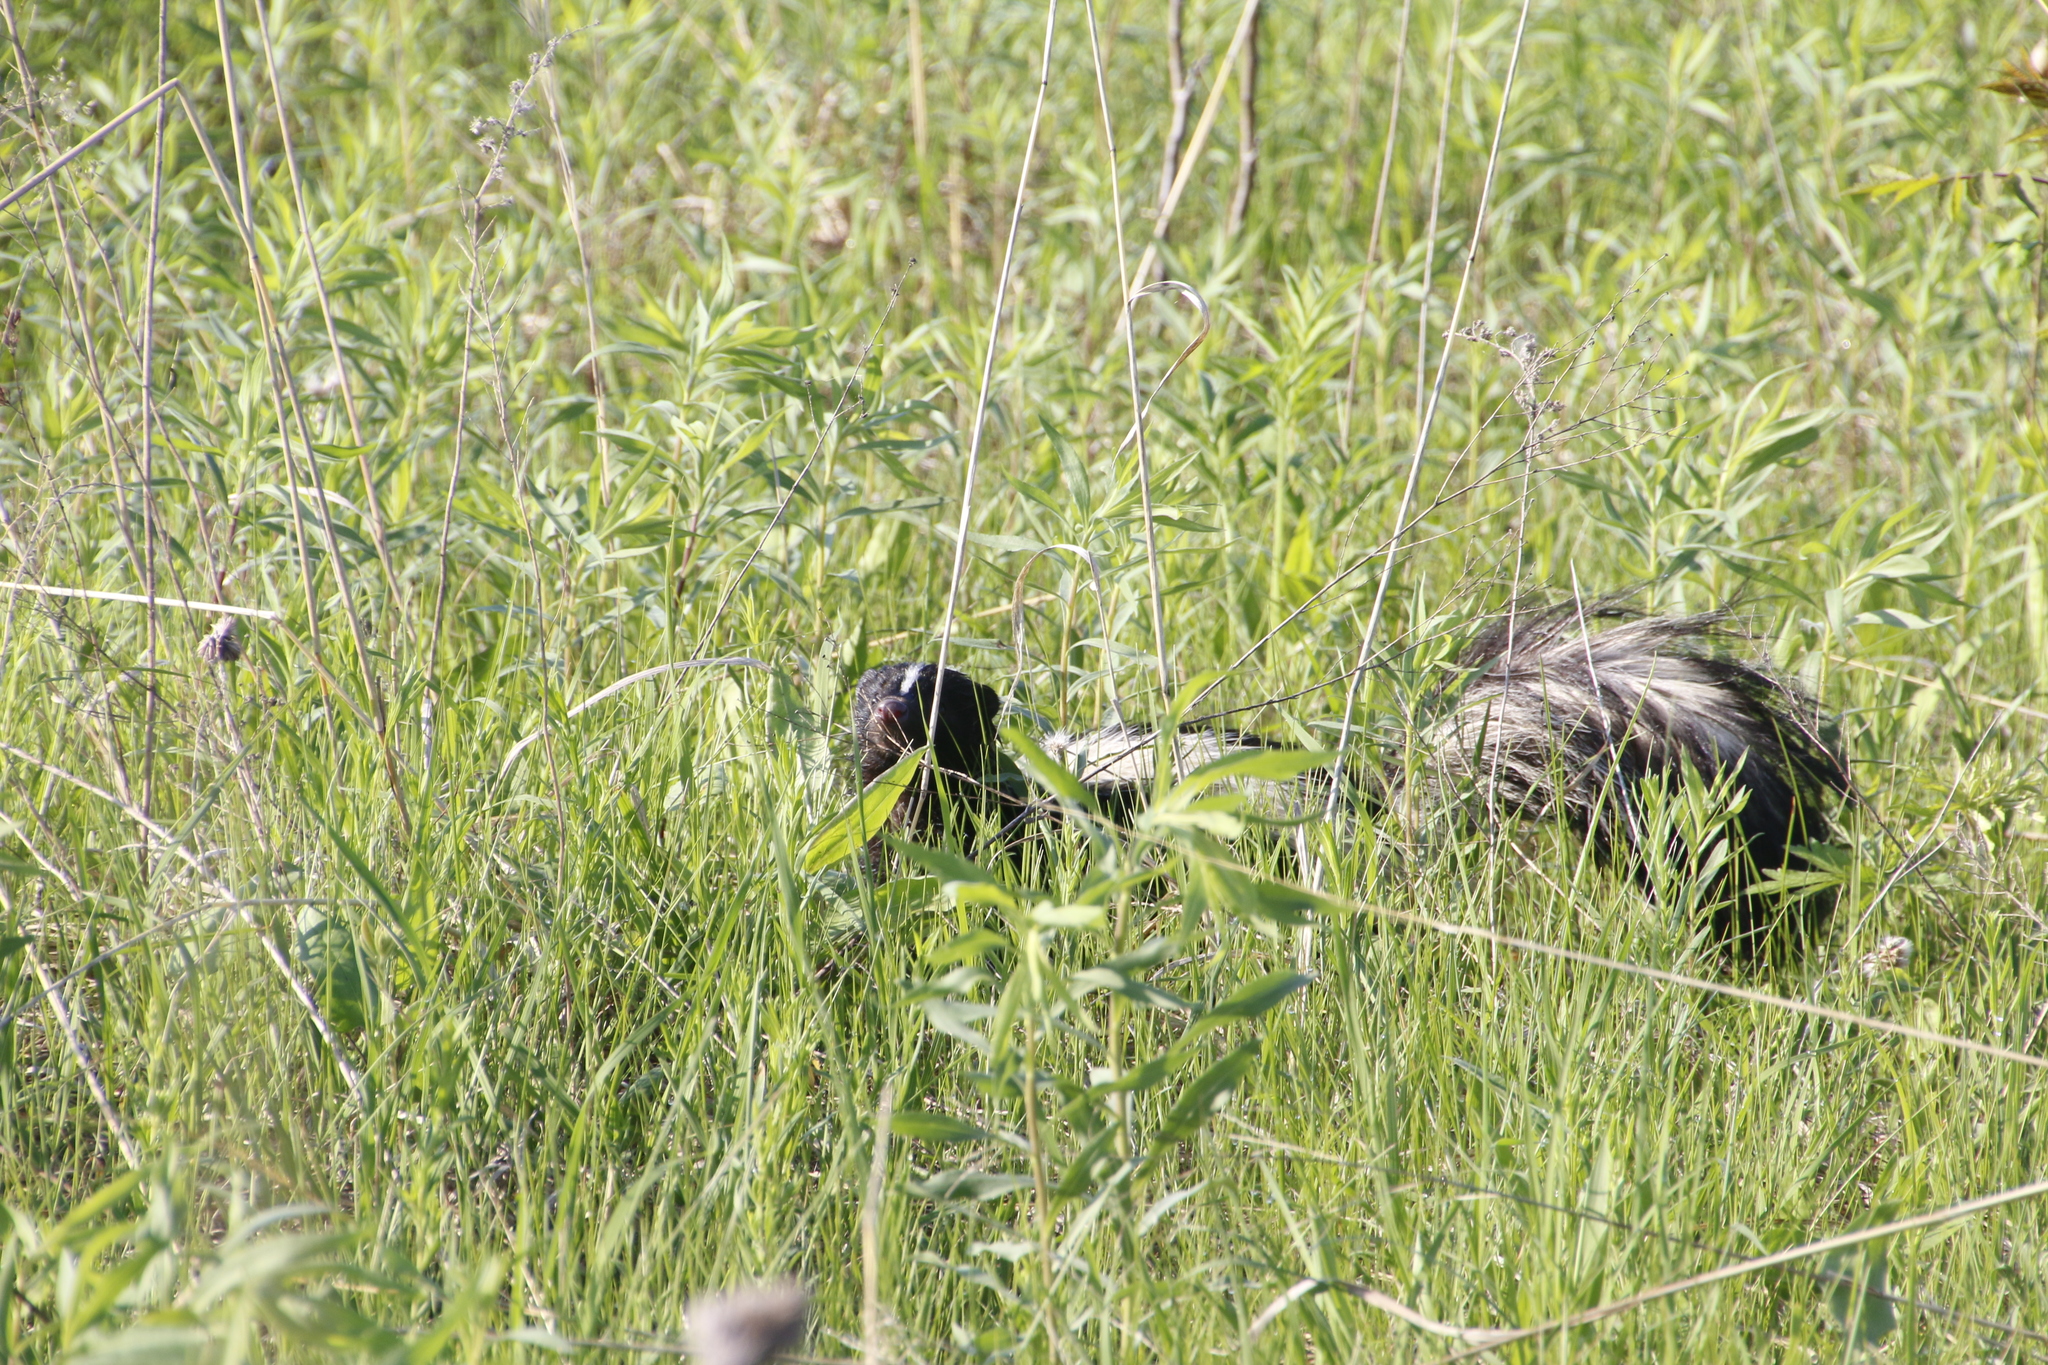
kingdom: Animalia
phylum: Chordata
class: Mammalia
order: Carnivora
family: Mephitidae
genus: Mephitis
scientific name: Mephitis mephitis
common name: Striped skunk
